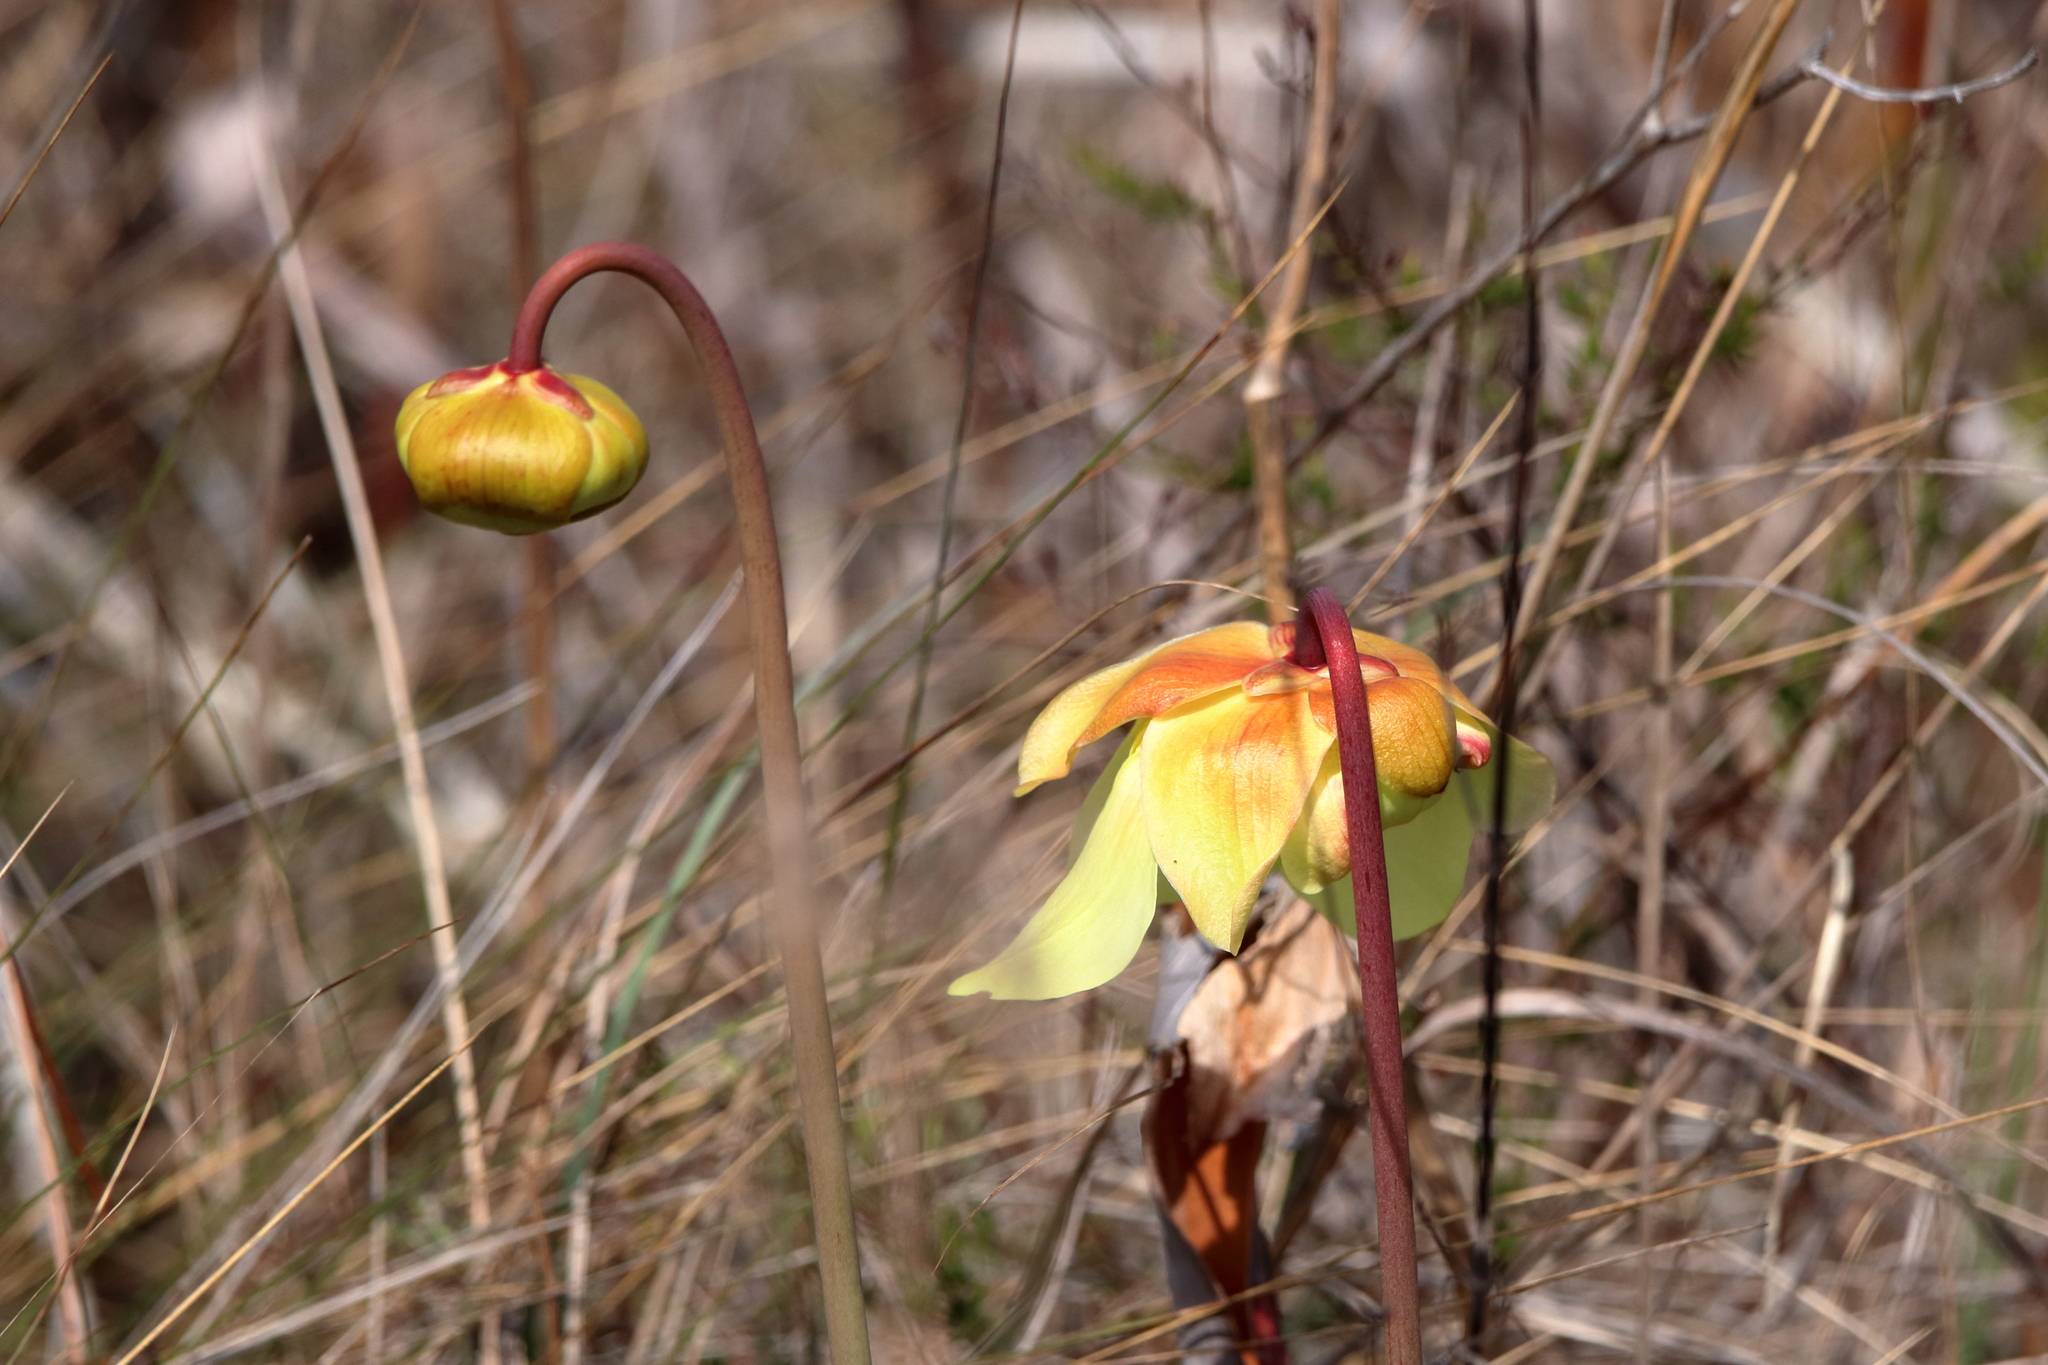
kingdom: Plantae
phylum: Tracheophyta
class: Magnoliopsida
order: Ericales
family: Sarraceniaceae
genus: Sarracenia
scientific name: Sarracenia alata
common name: Yellow trumpets
